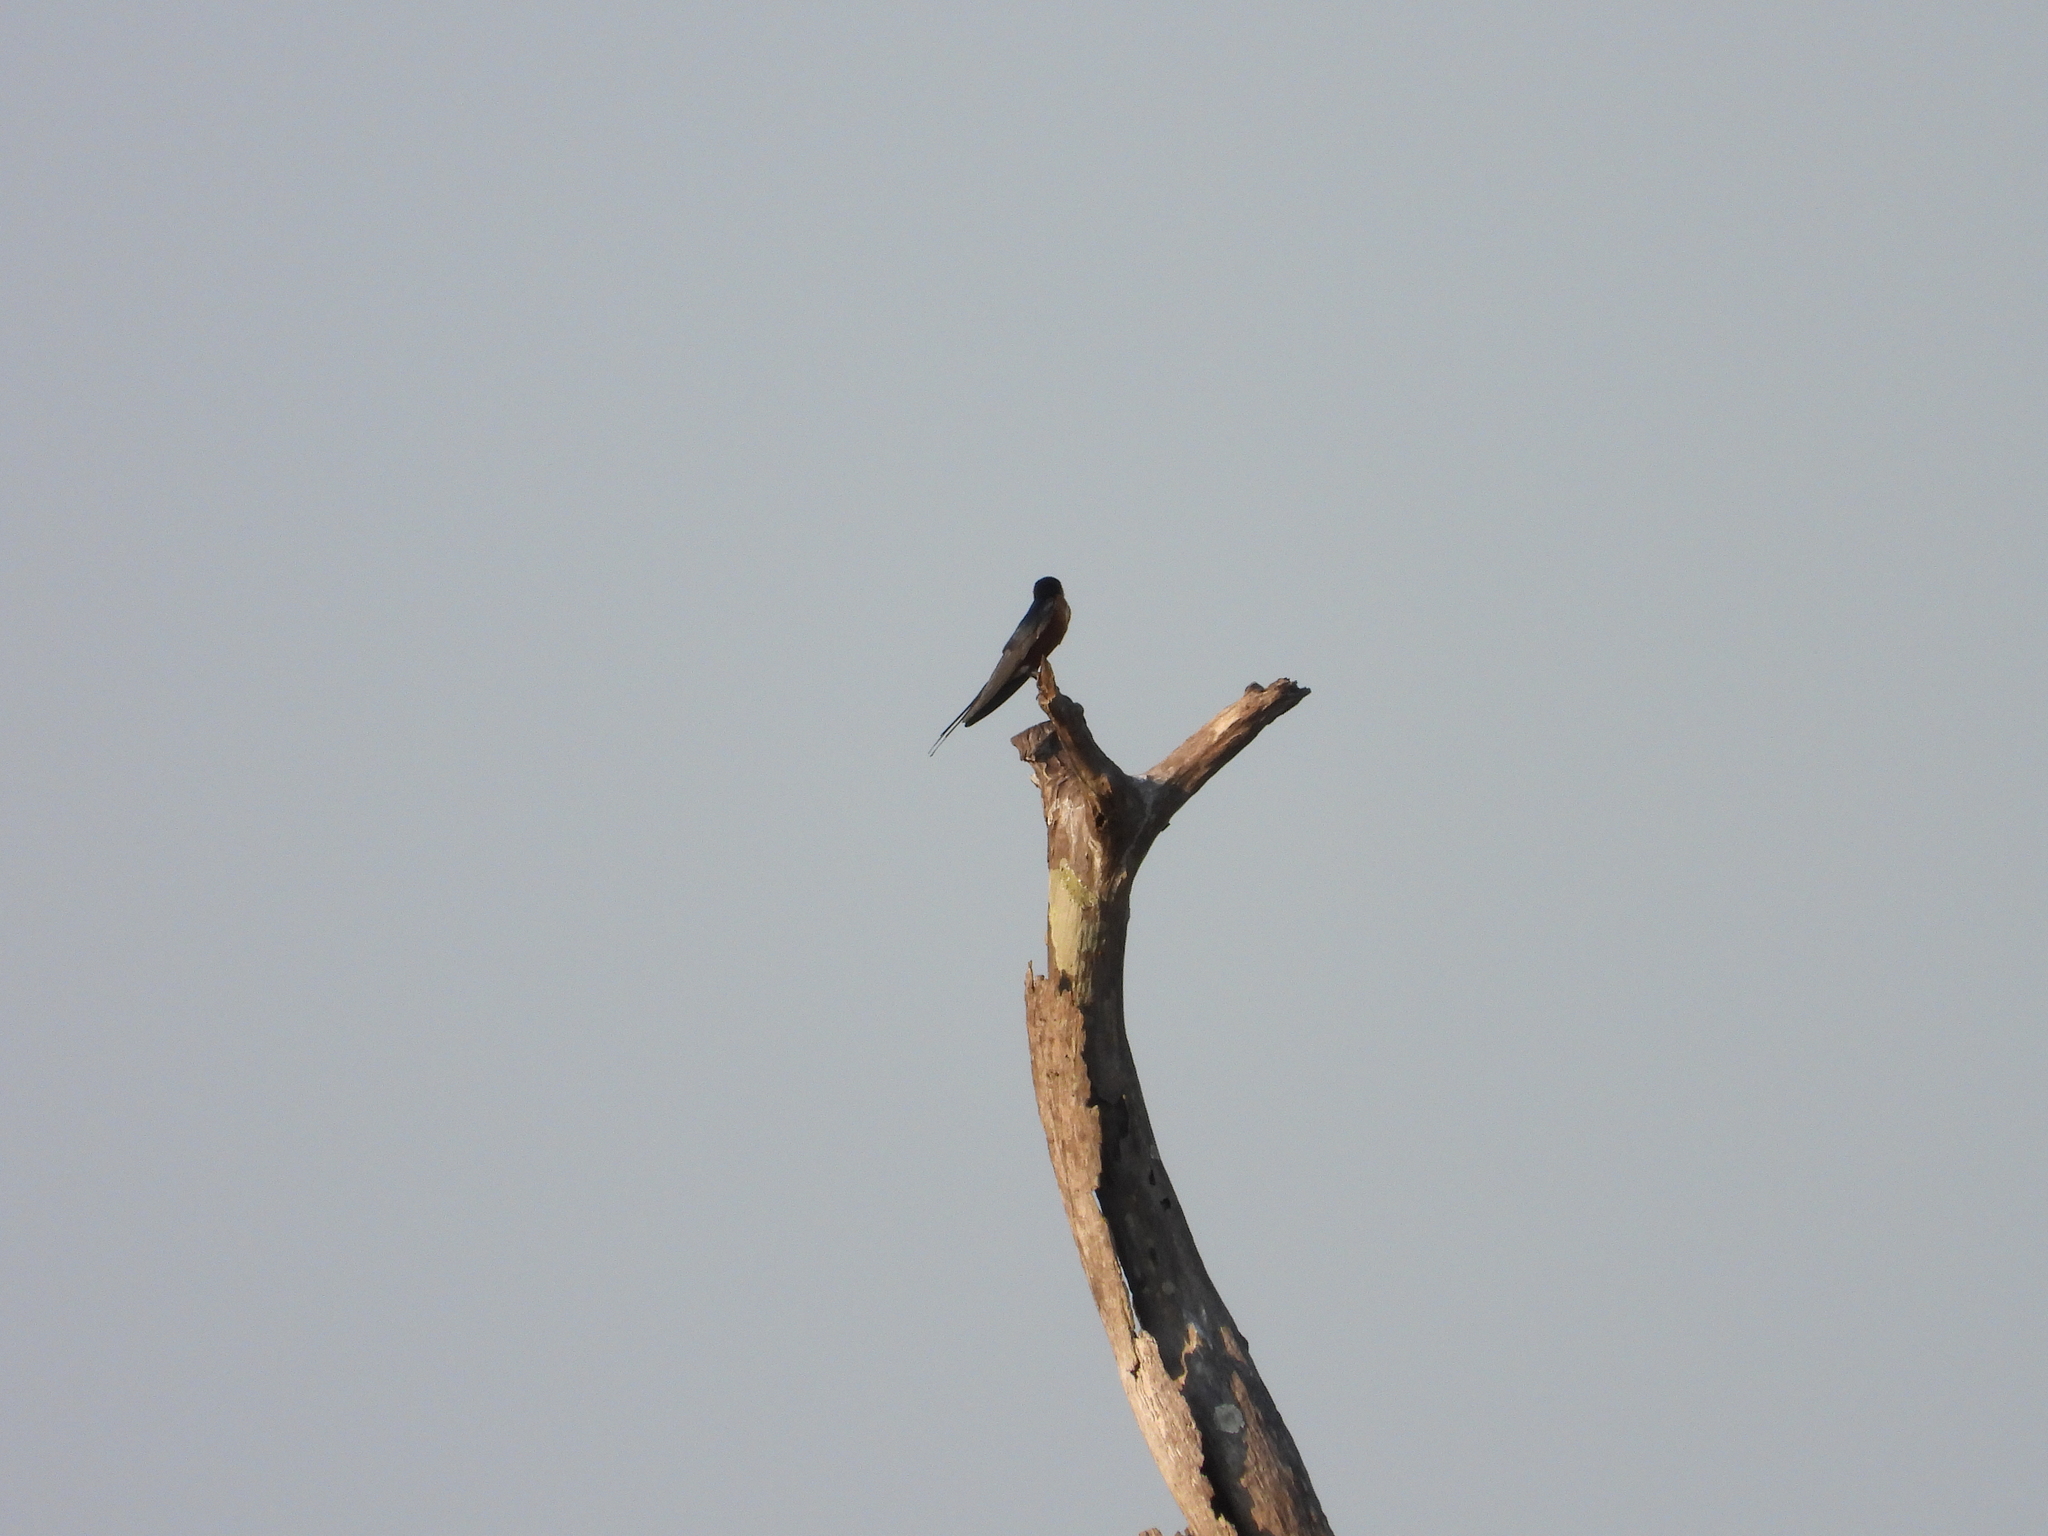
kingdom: Animalia
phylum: Chordata
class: Aves
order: Passeriformes
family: Hirundinidae
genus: Hirundo
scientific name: Hirundo smithii
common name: Wire-tailed swallow
